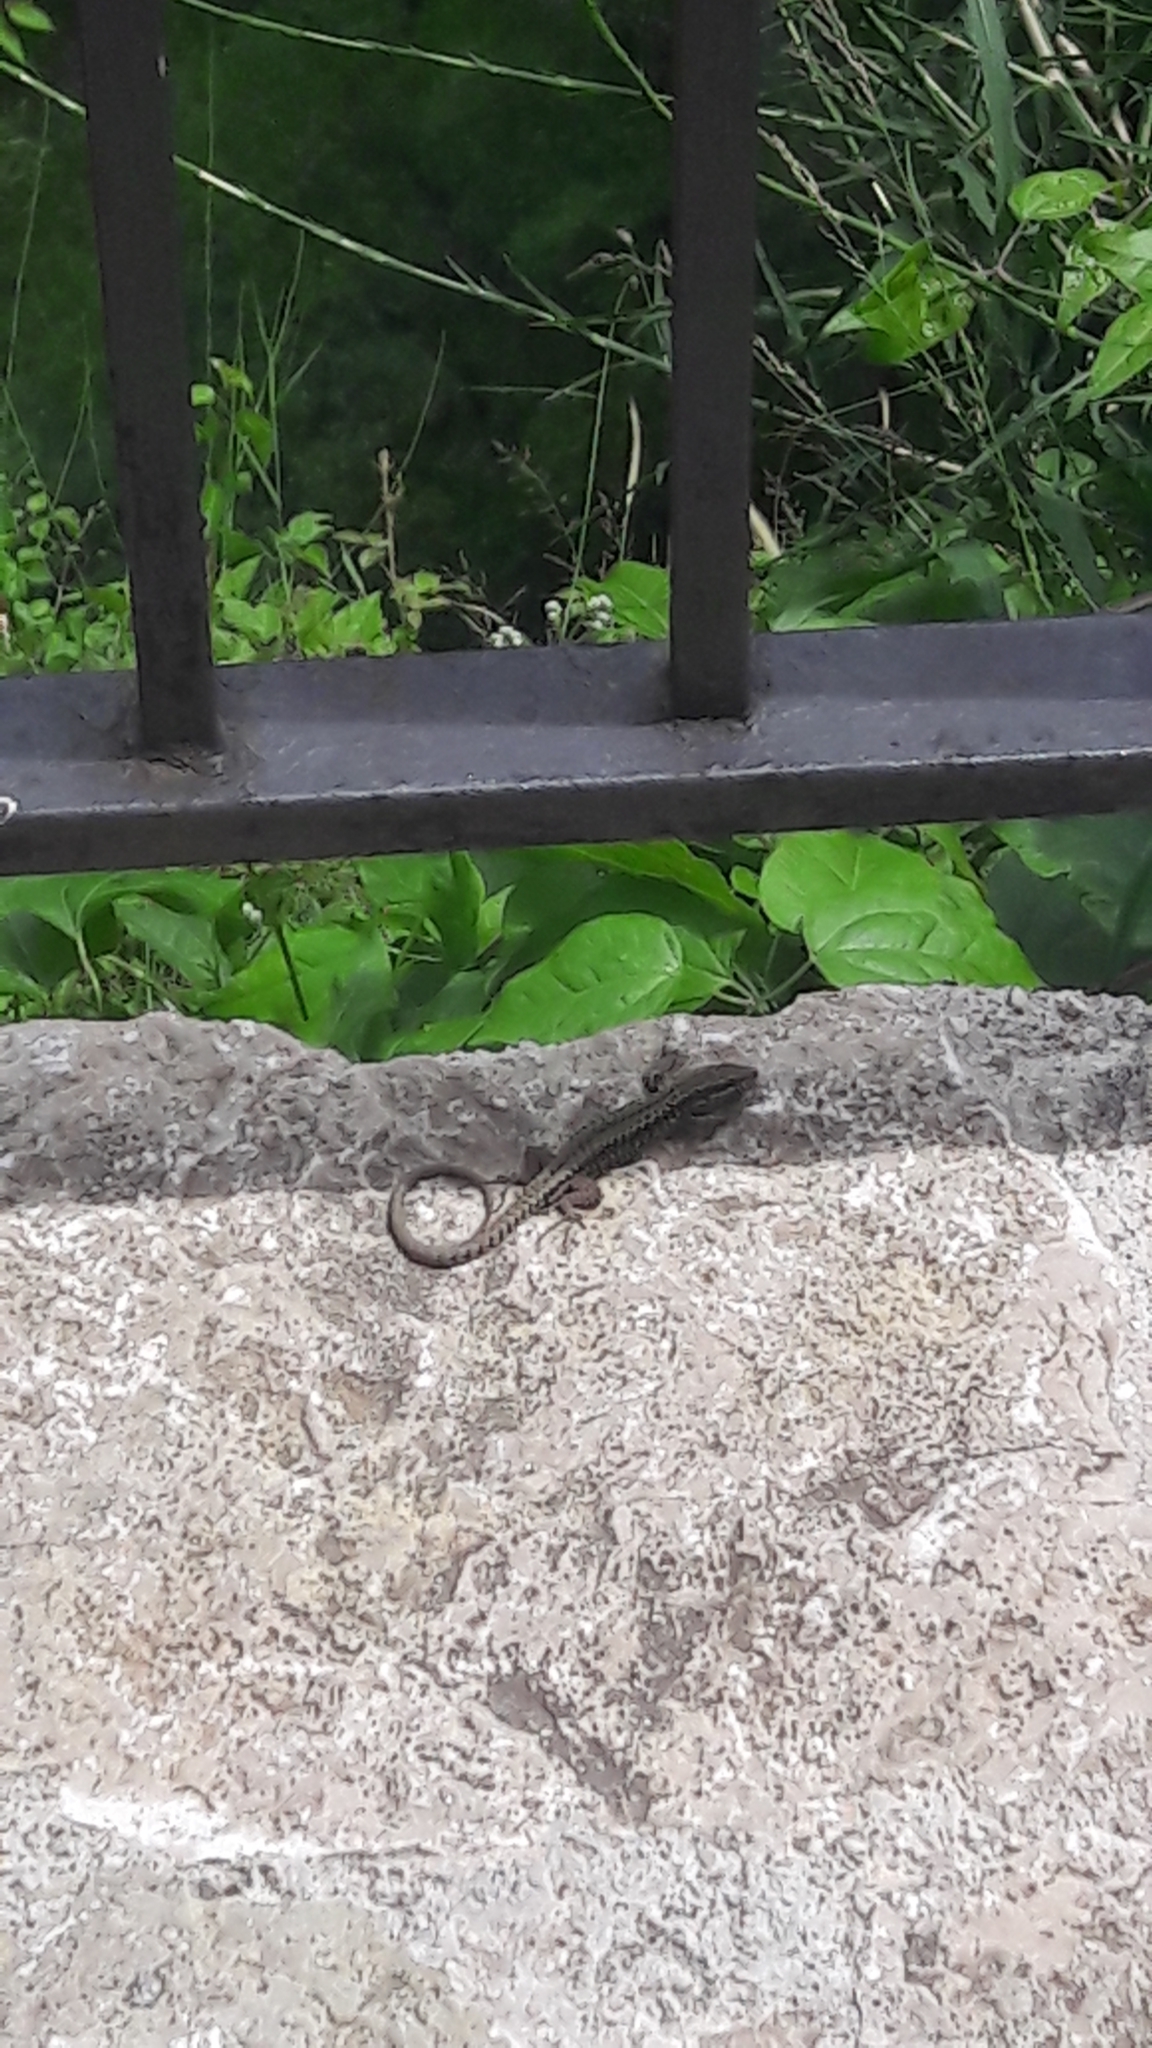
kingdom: Animalia
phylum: Chordata
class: Squamata
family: Lacertidae
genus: Podarcis
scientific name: Podarcis muralis
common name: Common wall lizard
